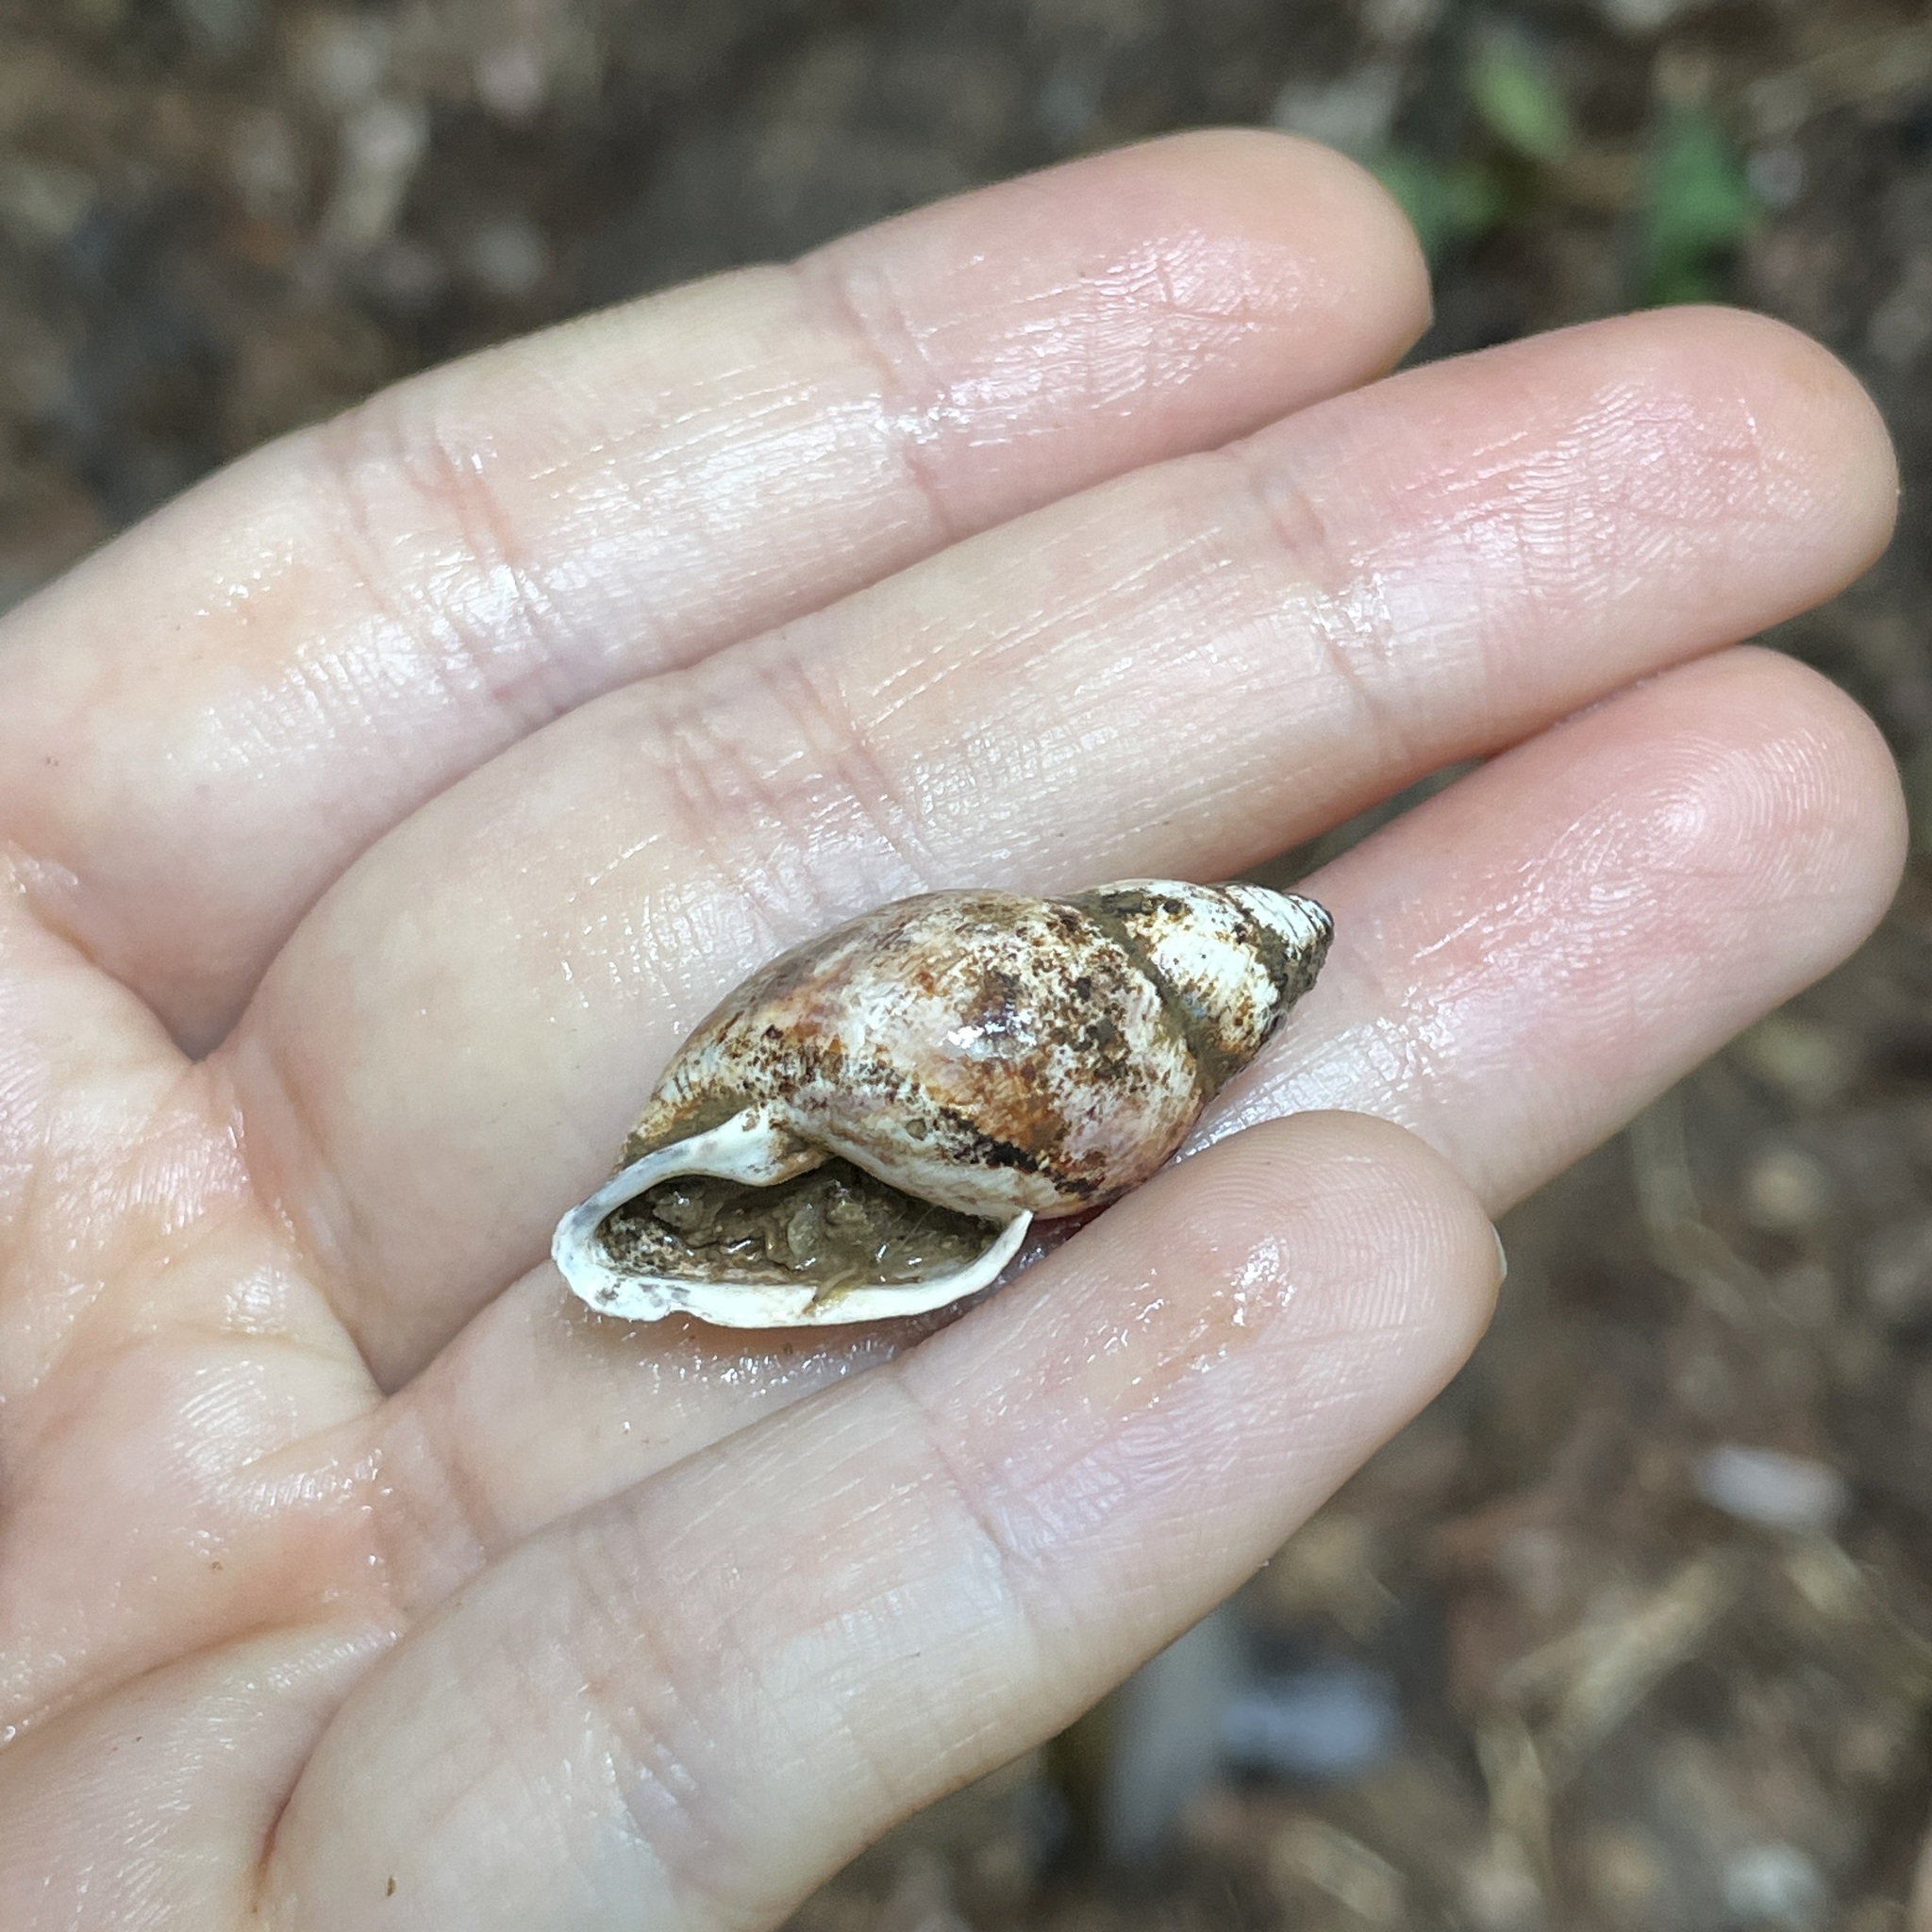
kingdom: Animalia
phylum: Mollusca
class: Gastropoda
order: Stylommatophora
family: Amphibulimidae
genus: Plekocheilus
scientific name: Plekocheilus glaber
